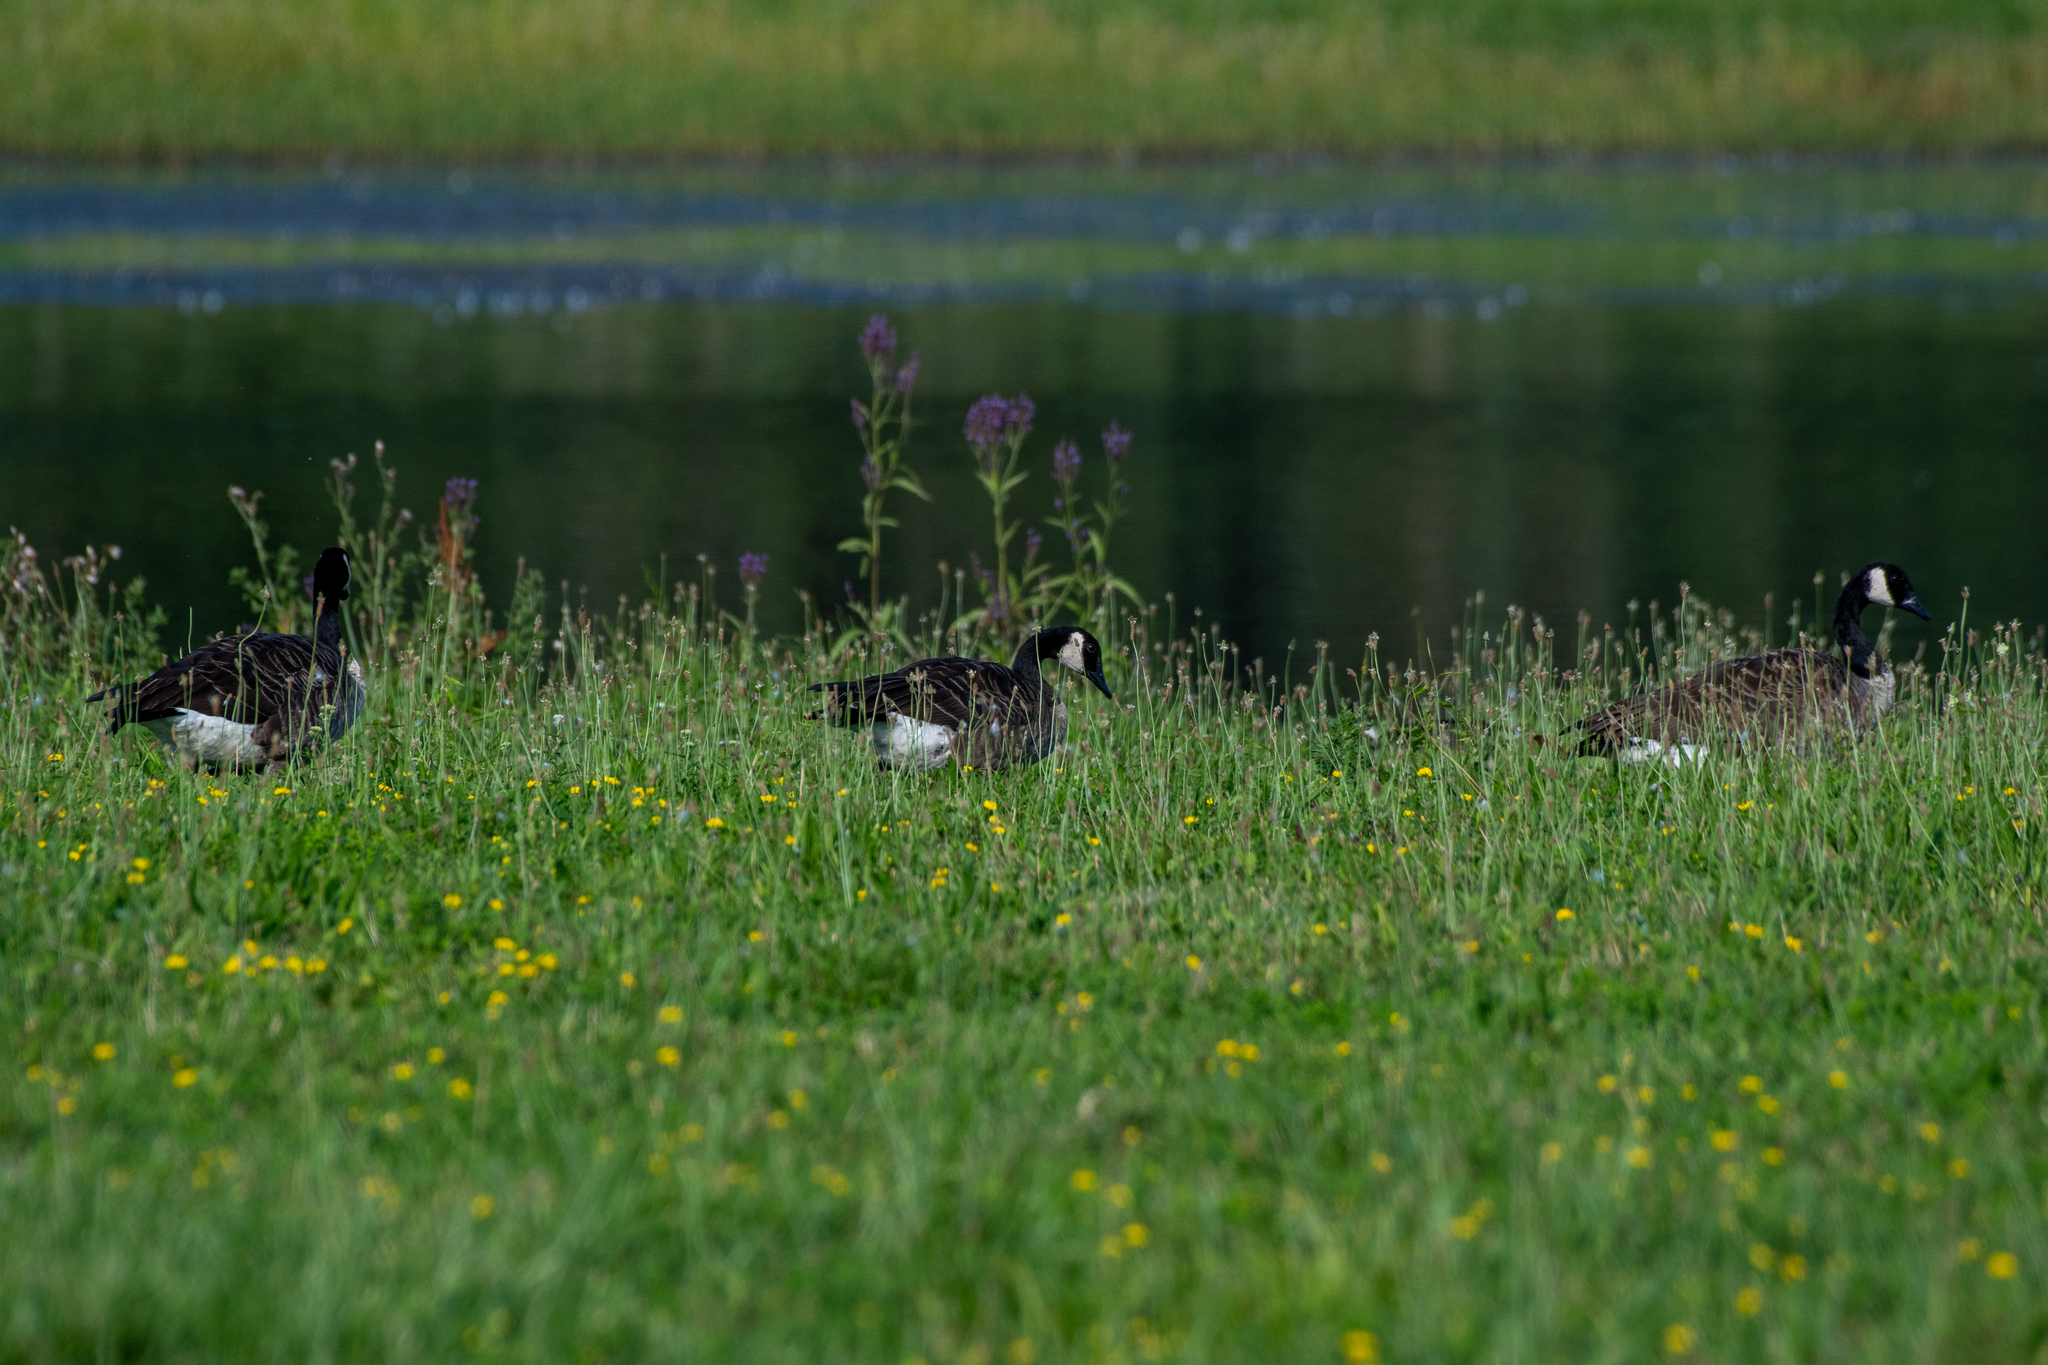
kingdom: Animalia
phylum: Chordata
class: Aves
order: Anseriformes
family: Anatidae
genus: Branta
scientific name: Branta canadensis
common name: Canada goose
